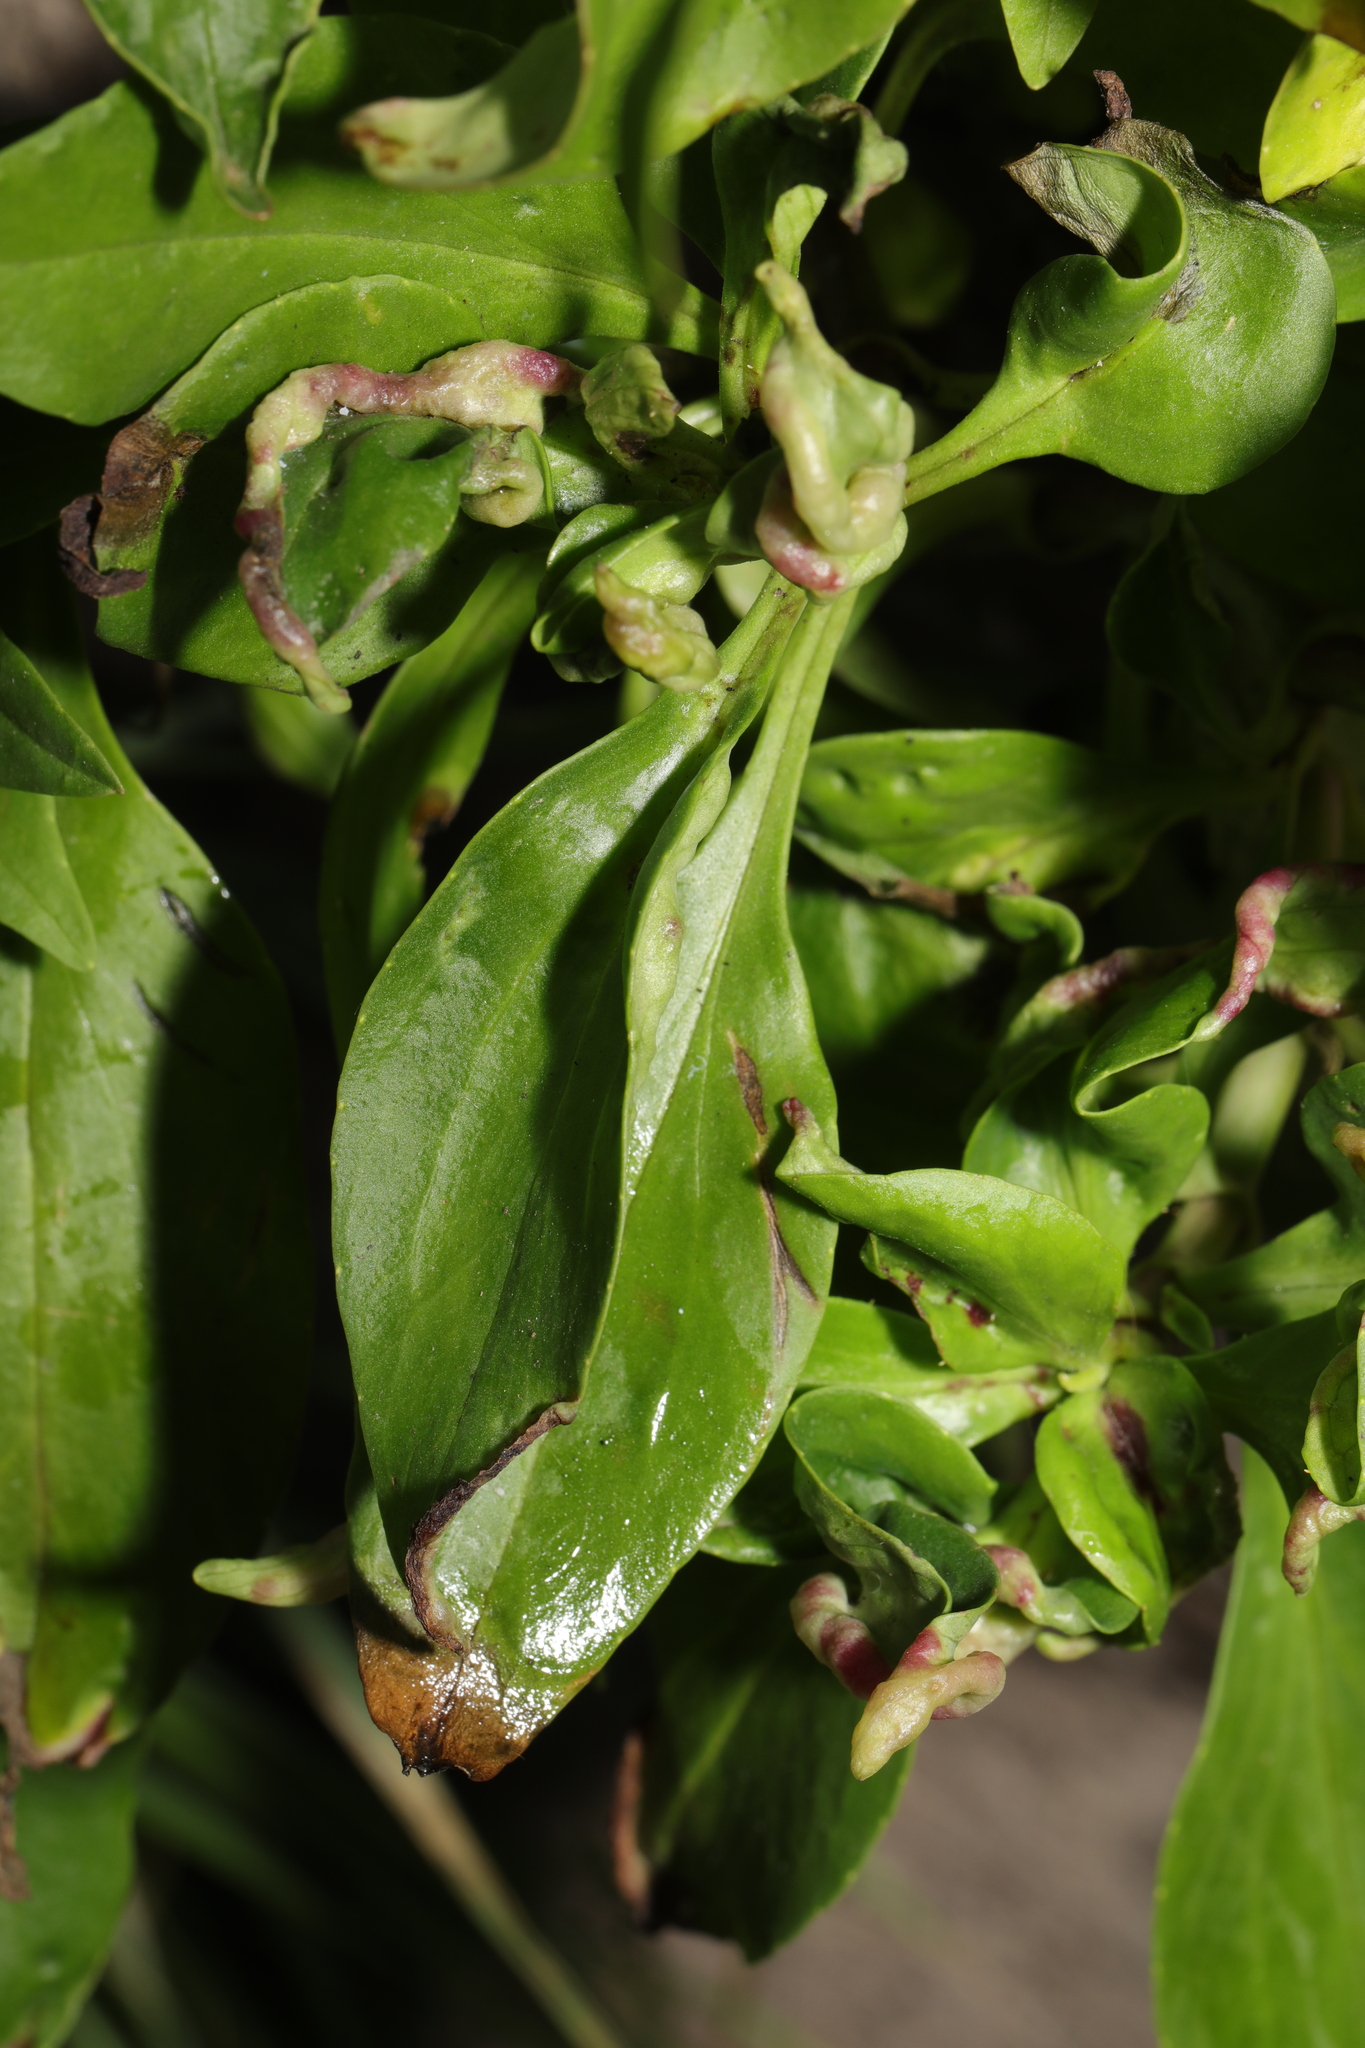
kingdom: Animalia
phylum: Arthropoda
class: Insecta
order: Hemiptera
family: Triozidae
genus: Trioza
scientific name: Trioza centranthi
